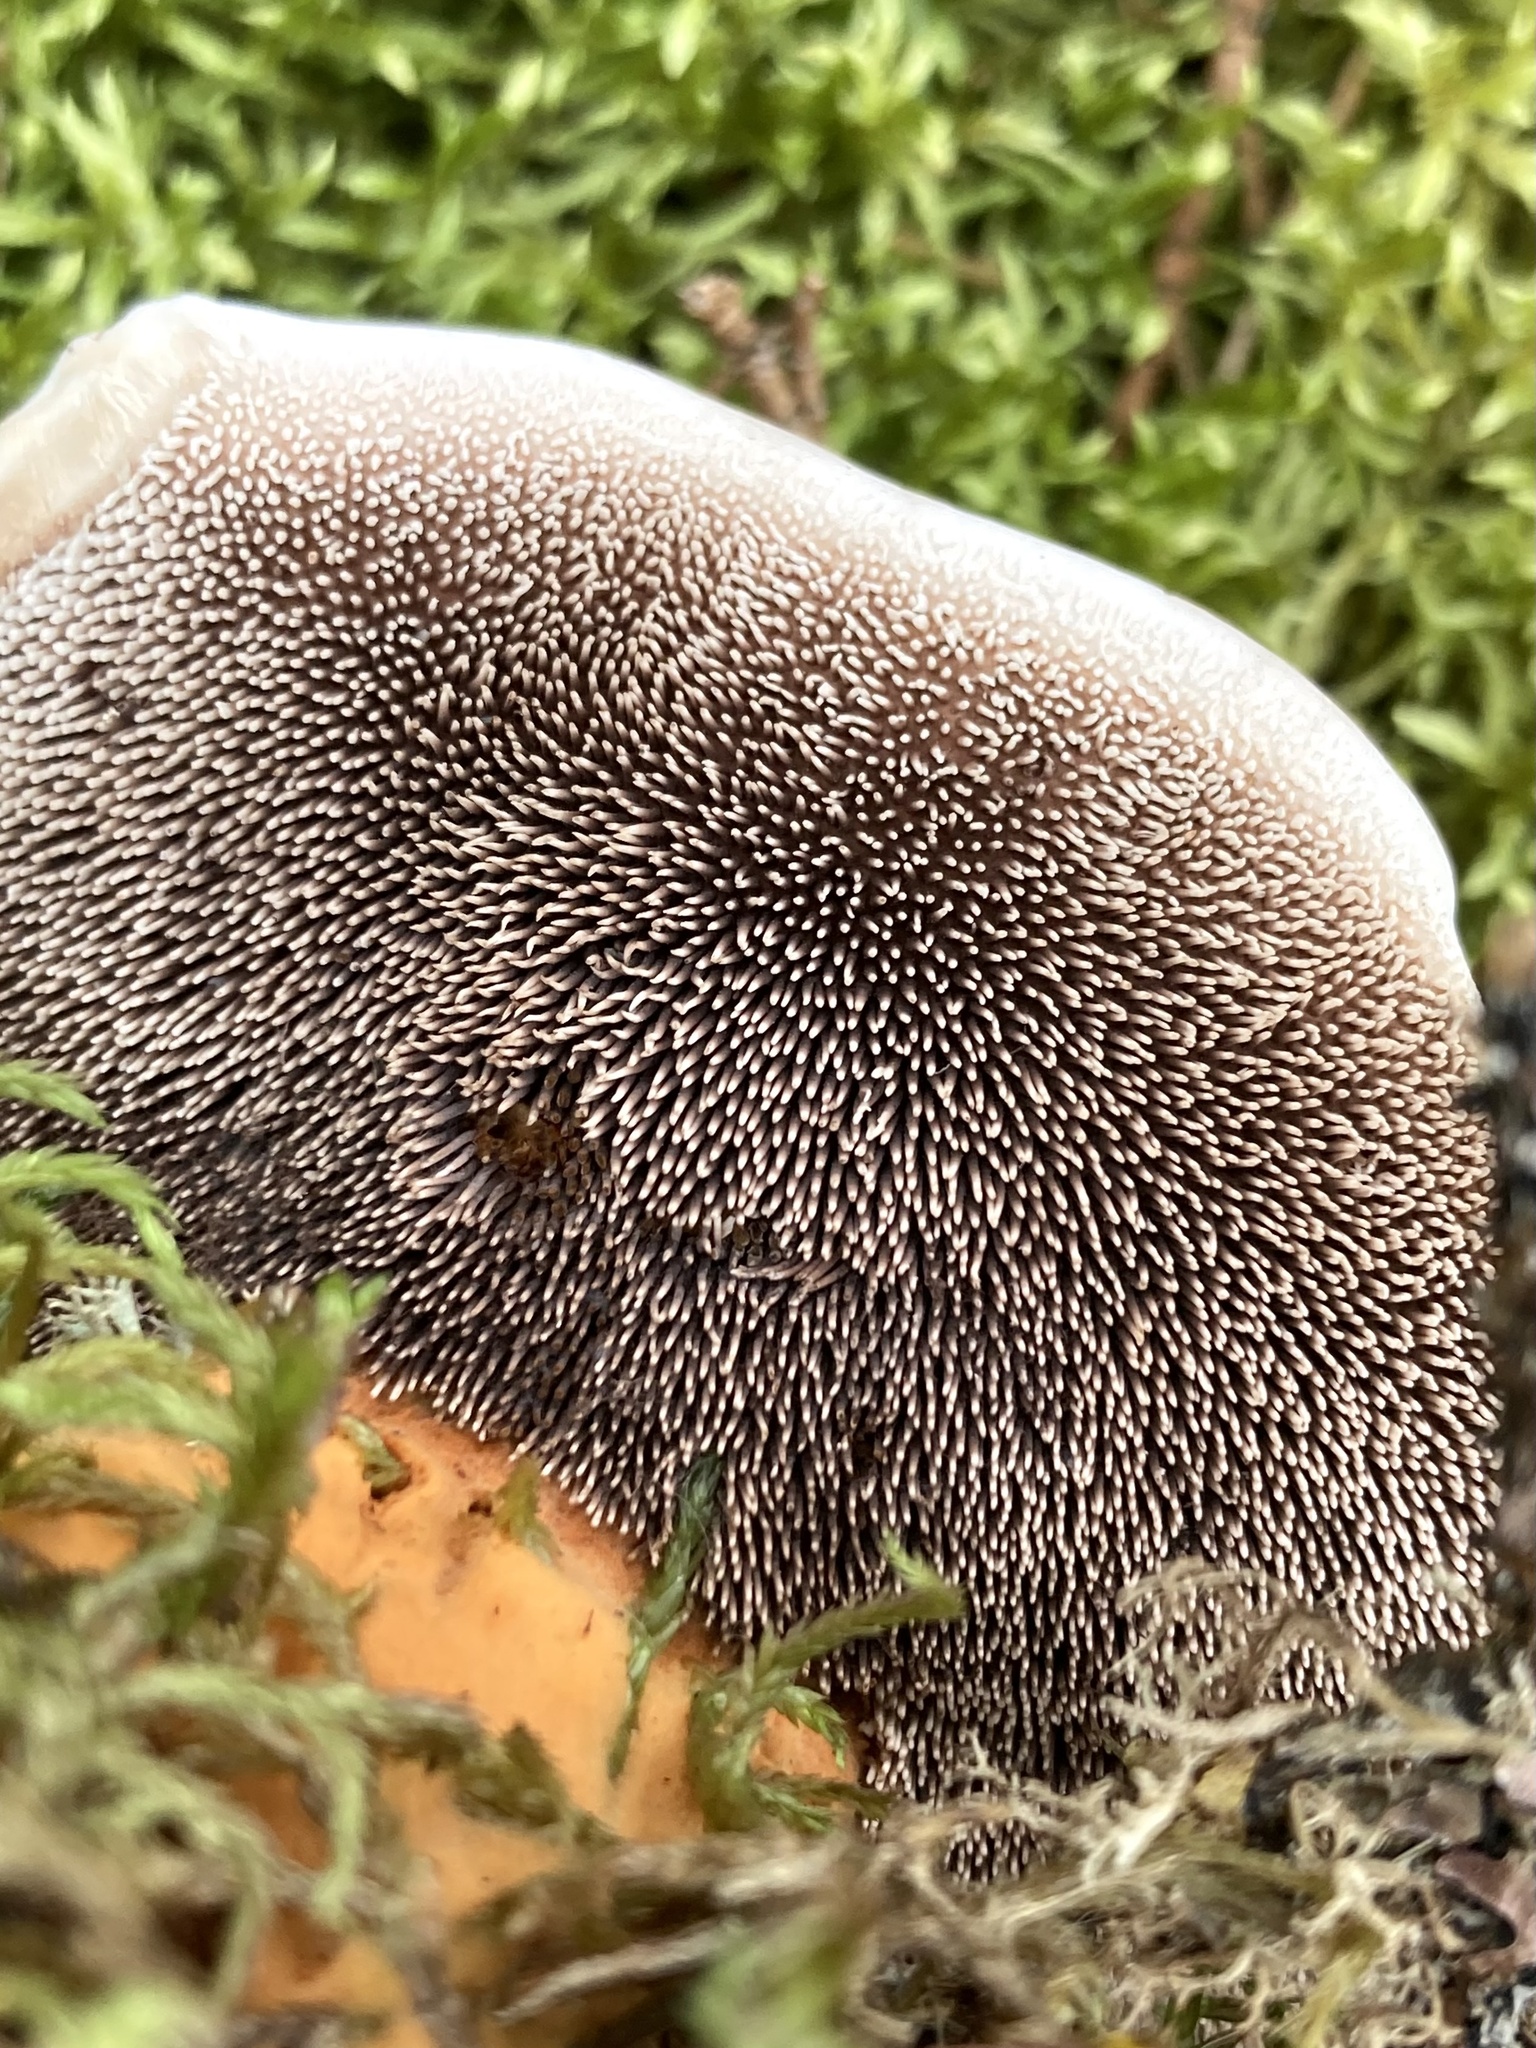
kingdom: Fungi
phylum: Basidiomycota
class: Agaricomycetes
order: Thelephorales
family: Bankeraceae
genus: Hydnellum
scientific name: Hydnellum aurantiacum
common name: Orange tooth
